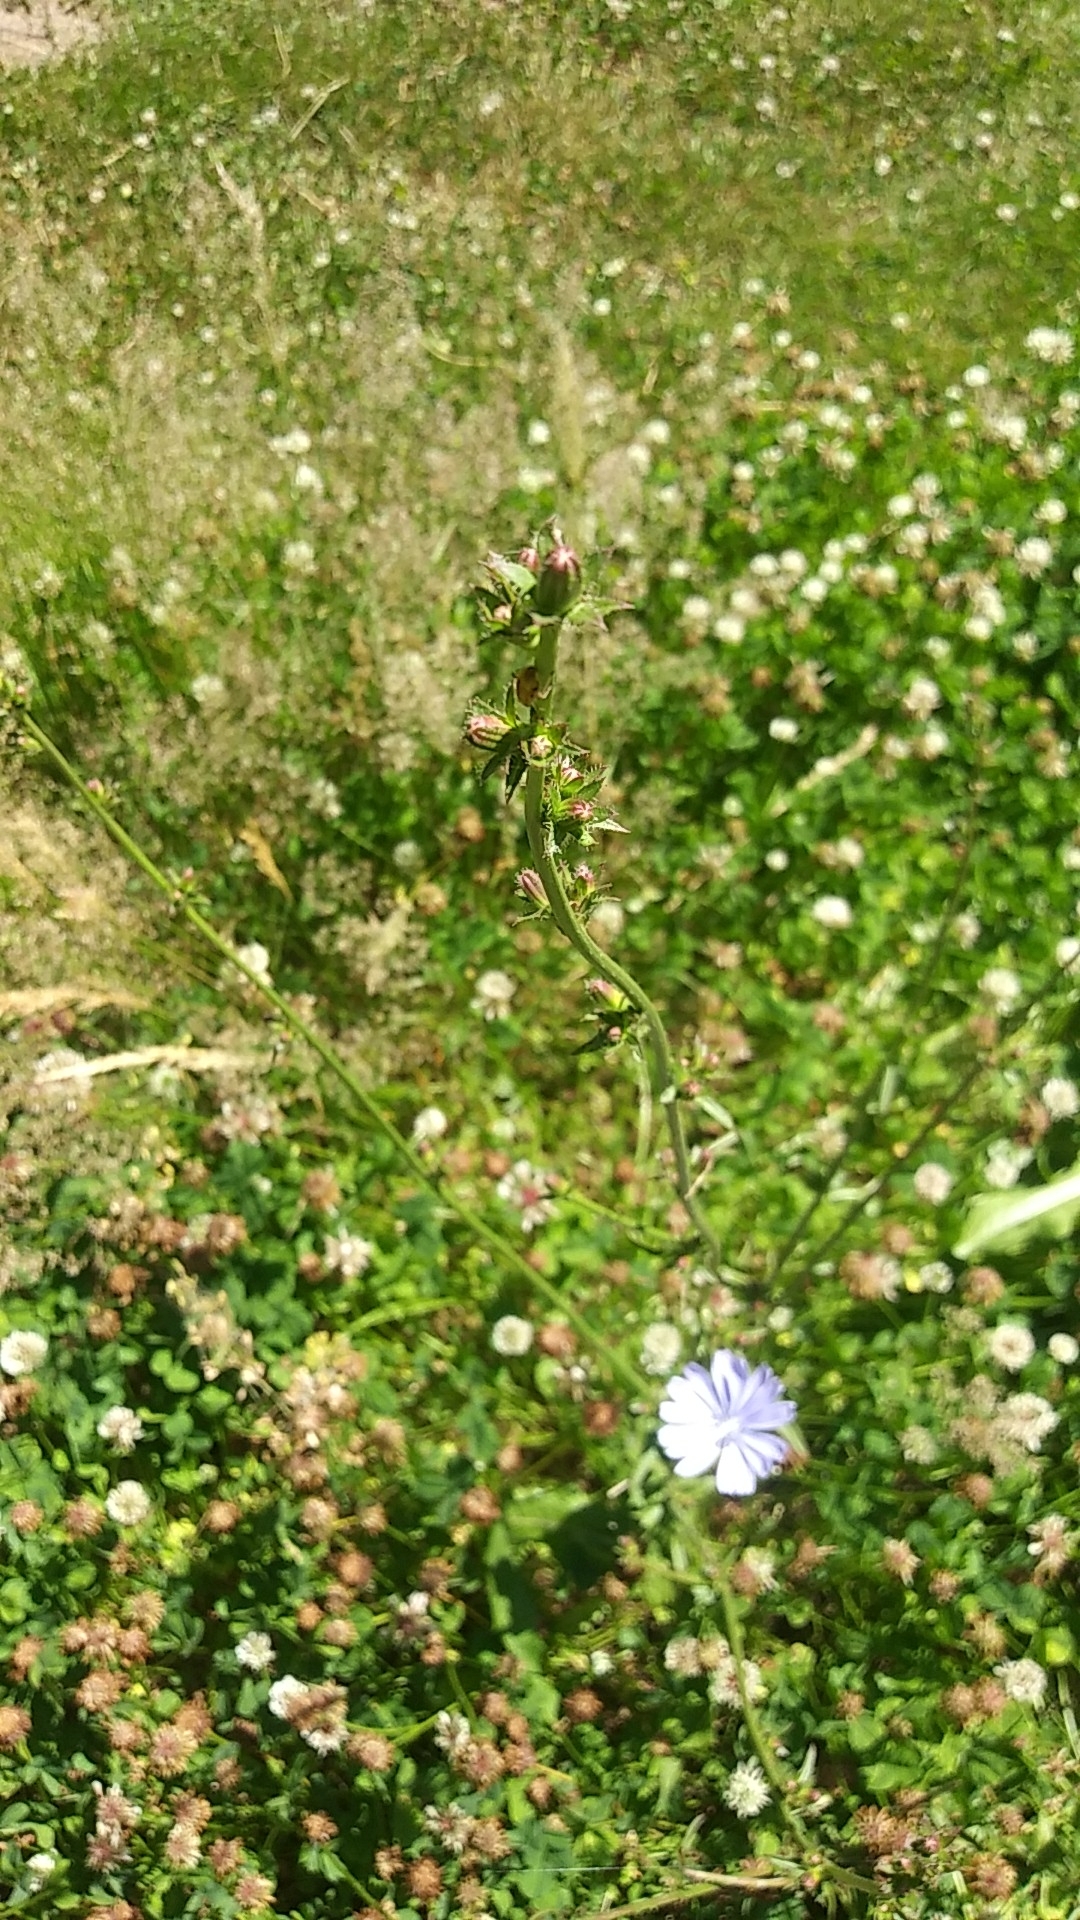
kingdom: Plantae
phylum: Tracheophyta
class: Magnoliopsida
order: Asterales
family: Asteraceae
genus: Cichorium
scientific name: Cichorium intybus
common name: Chicory
